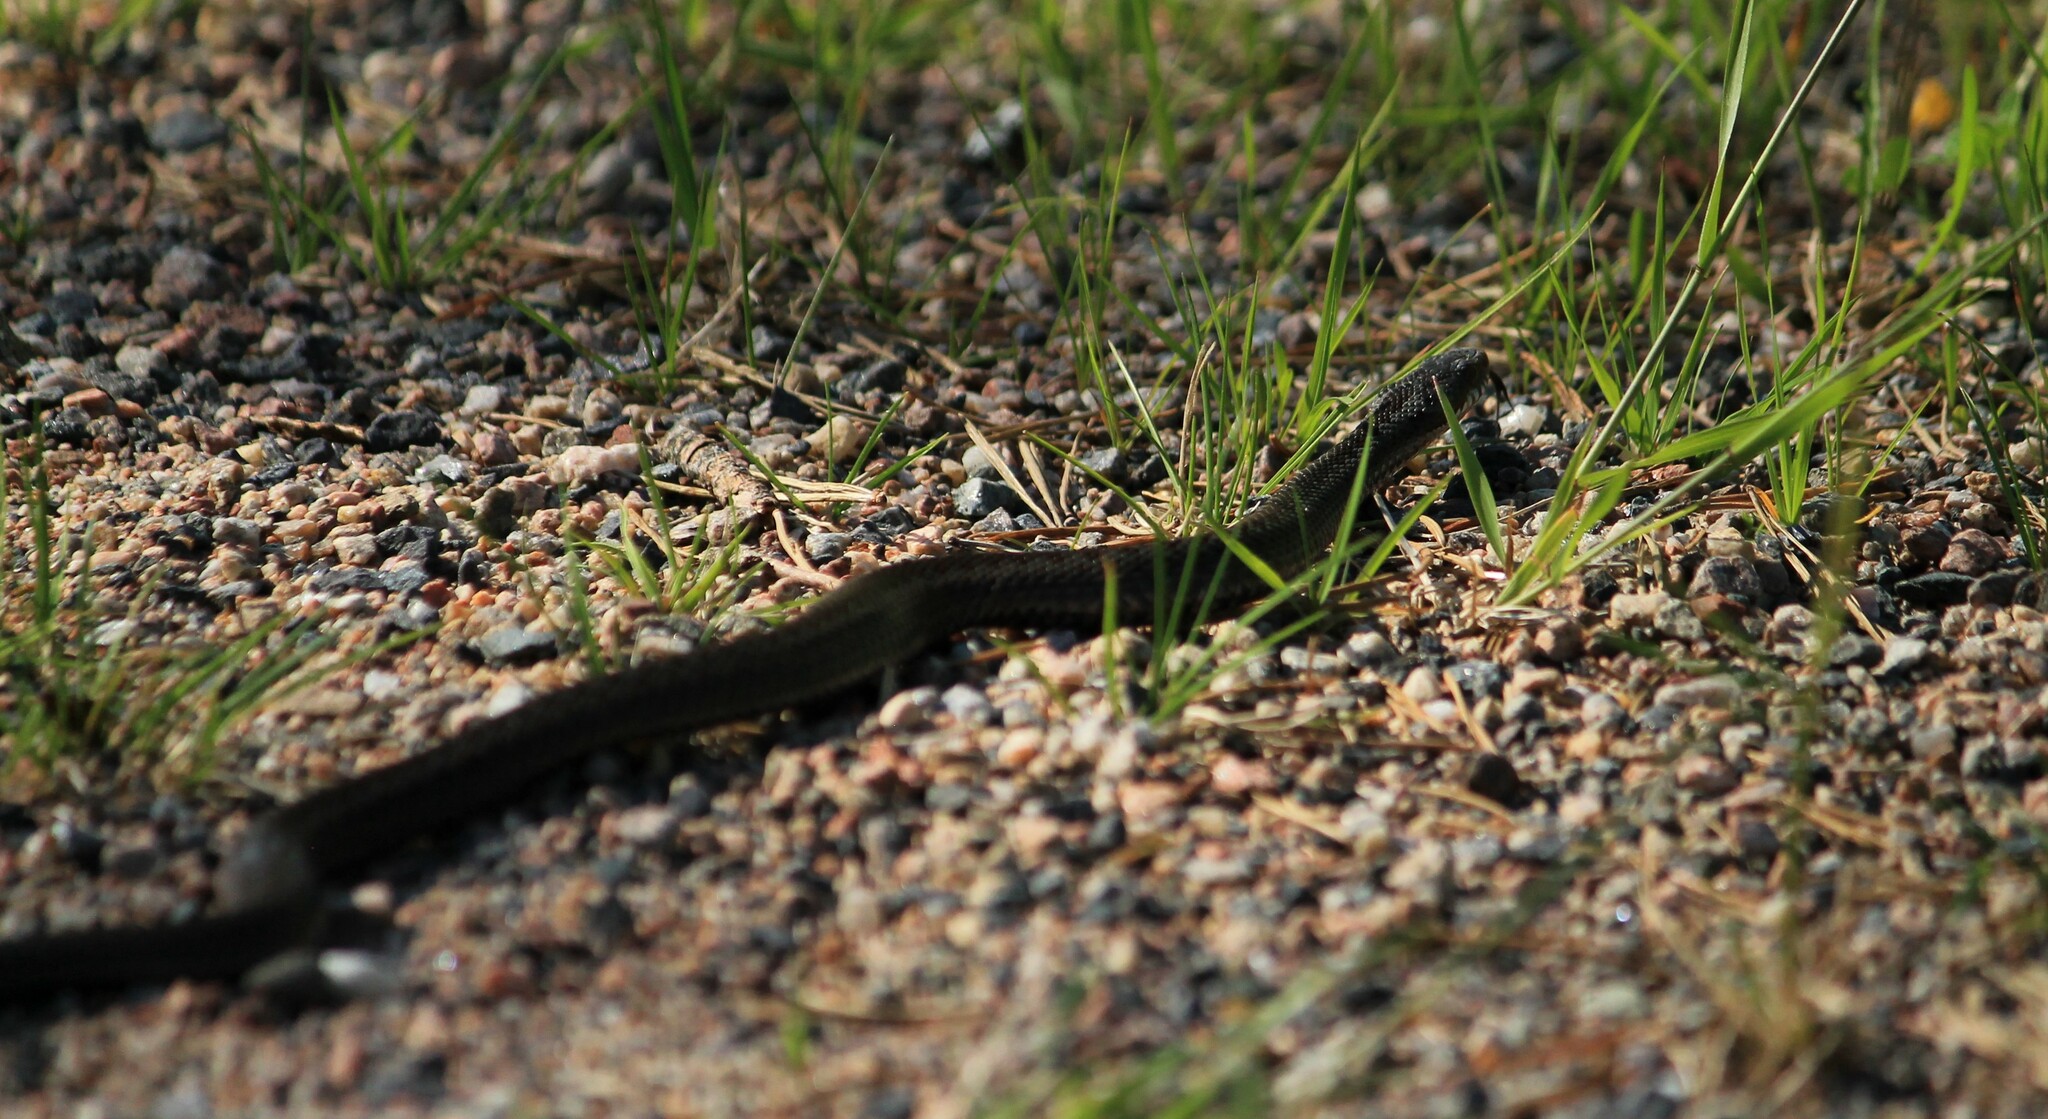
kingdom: Animalia
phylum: Chordata
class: Squamata
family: Viperidae
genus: Vipera
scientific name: Vipera berus
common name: Adder
